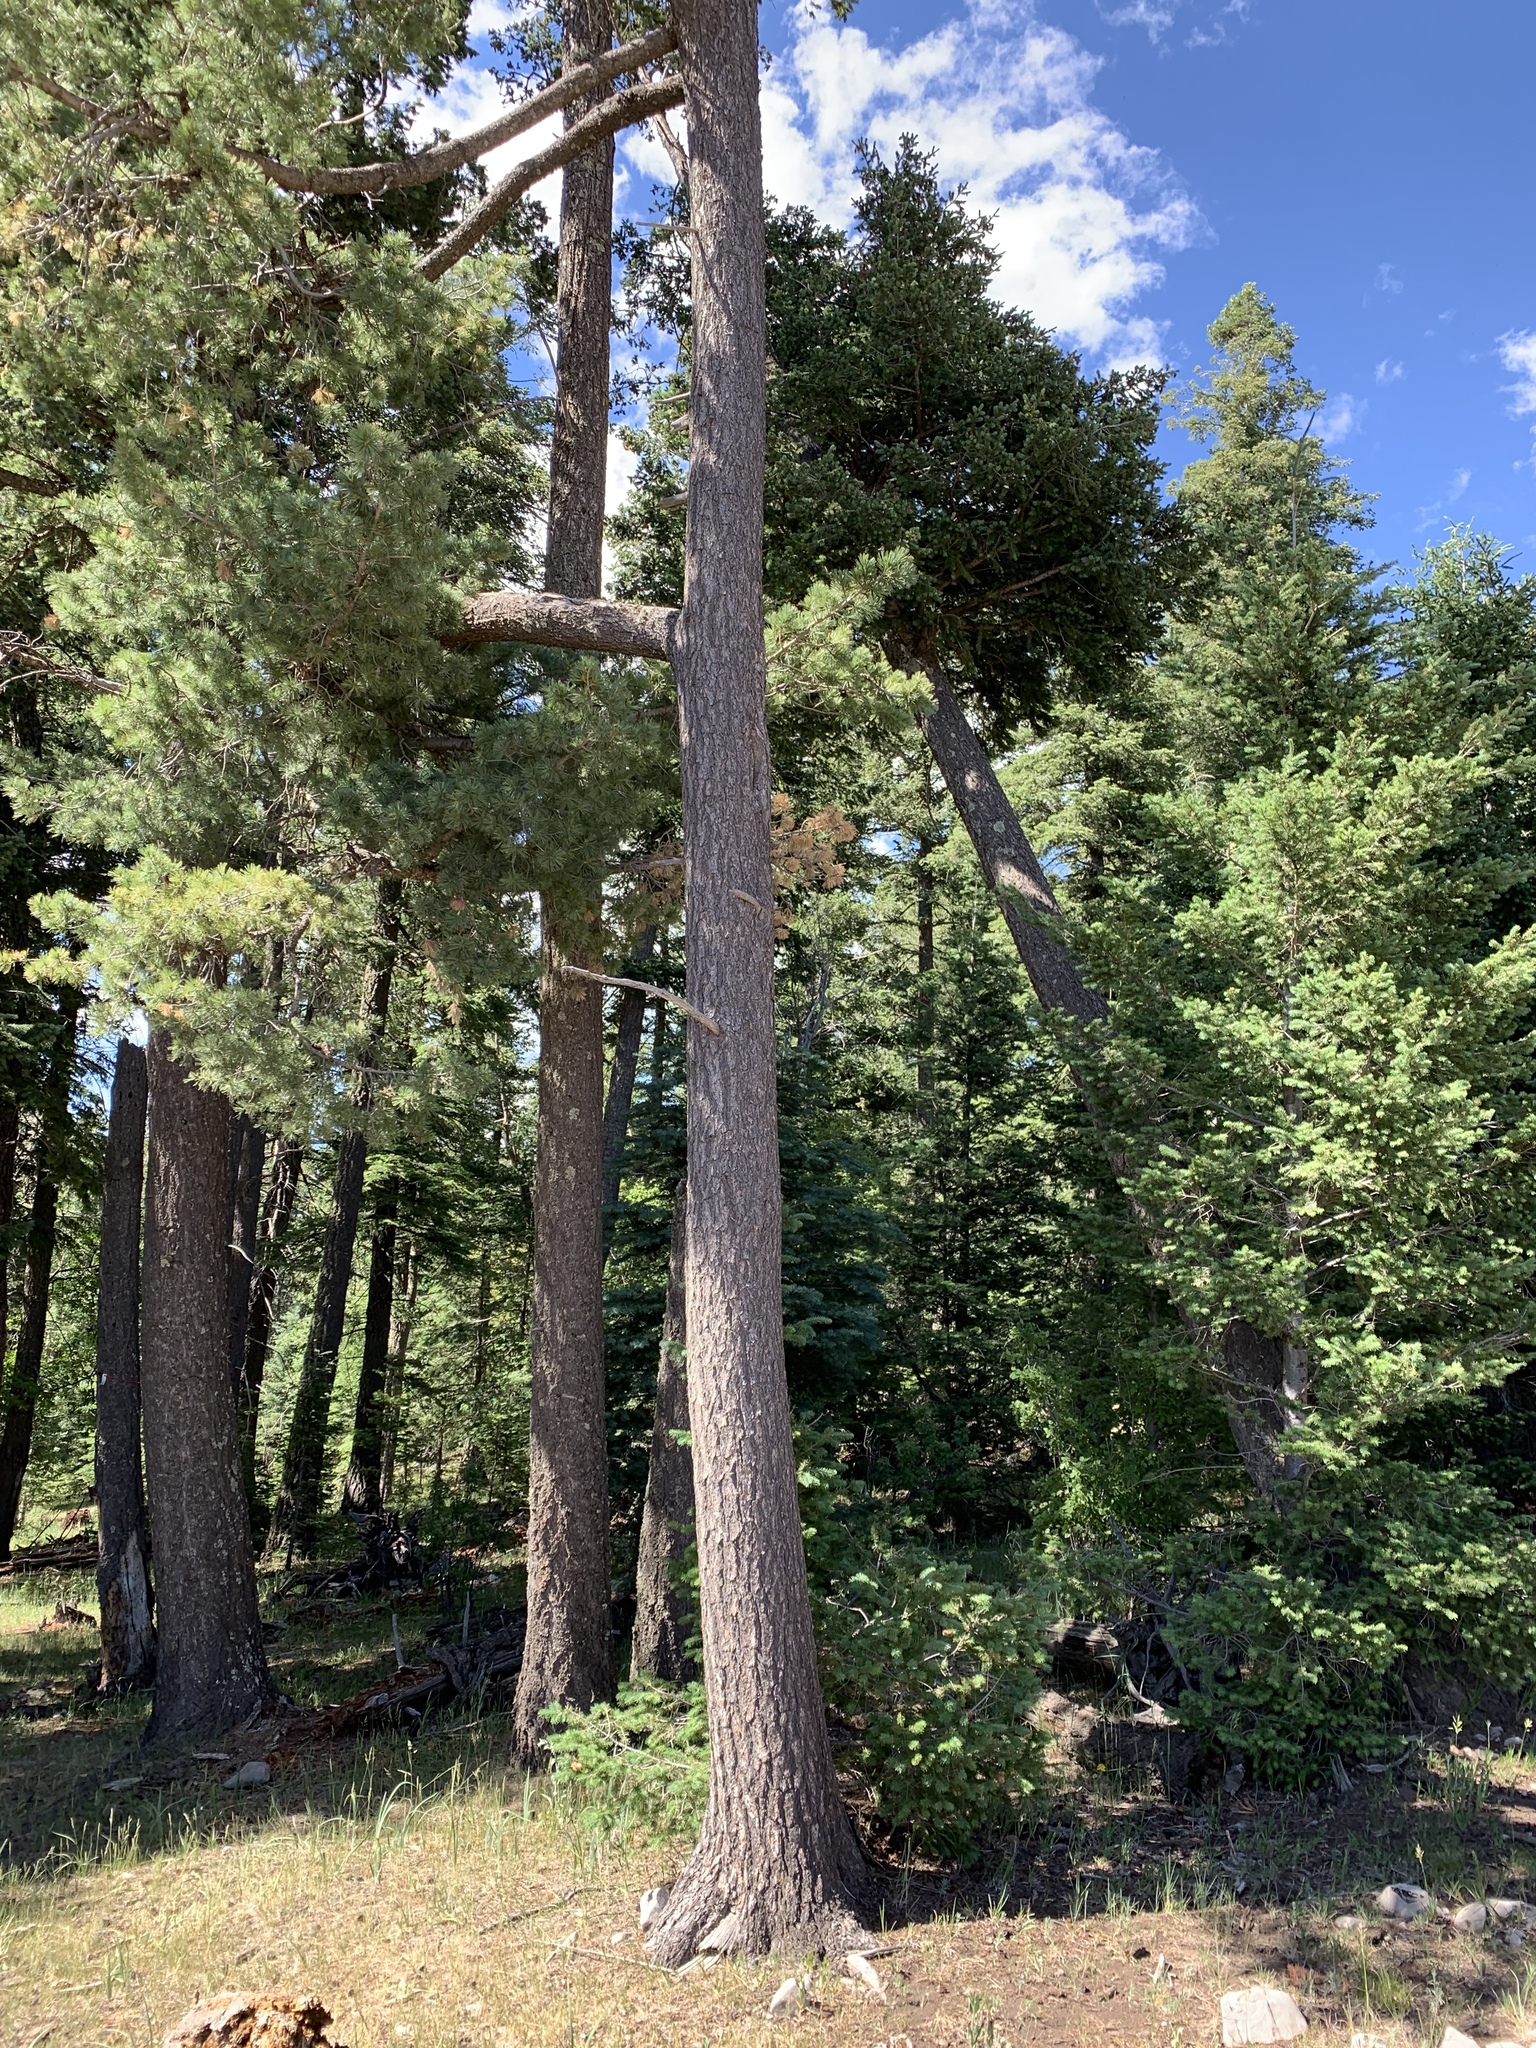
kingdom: Plantae
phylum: Tracheophyta
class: Pinopsida
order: Pinales
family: Pinaceae
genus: Pinus
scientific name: Pinus strobiformis
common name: Southwestern white pine
